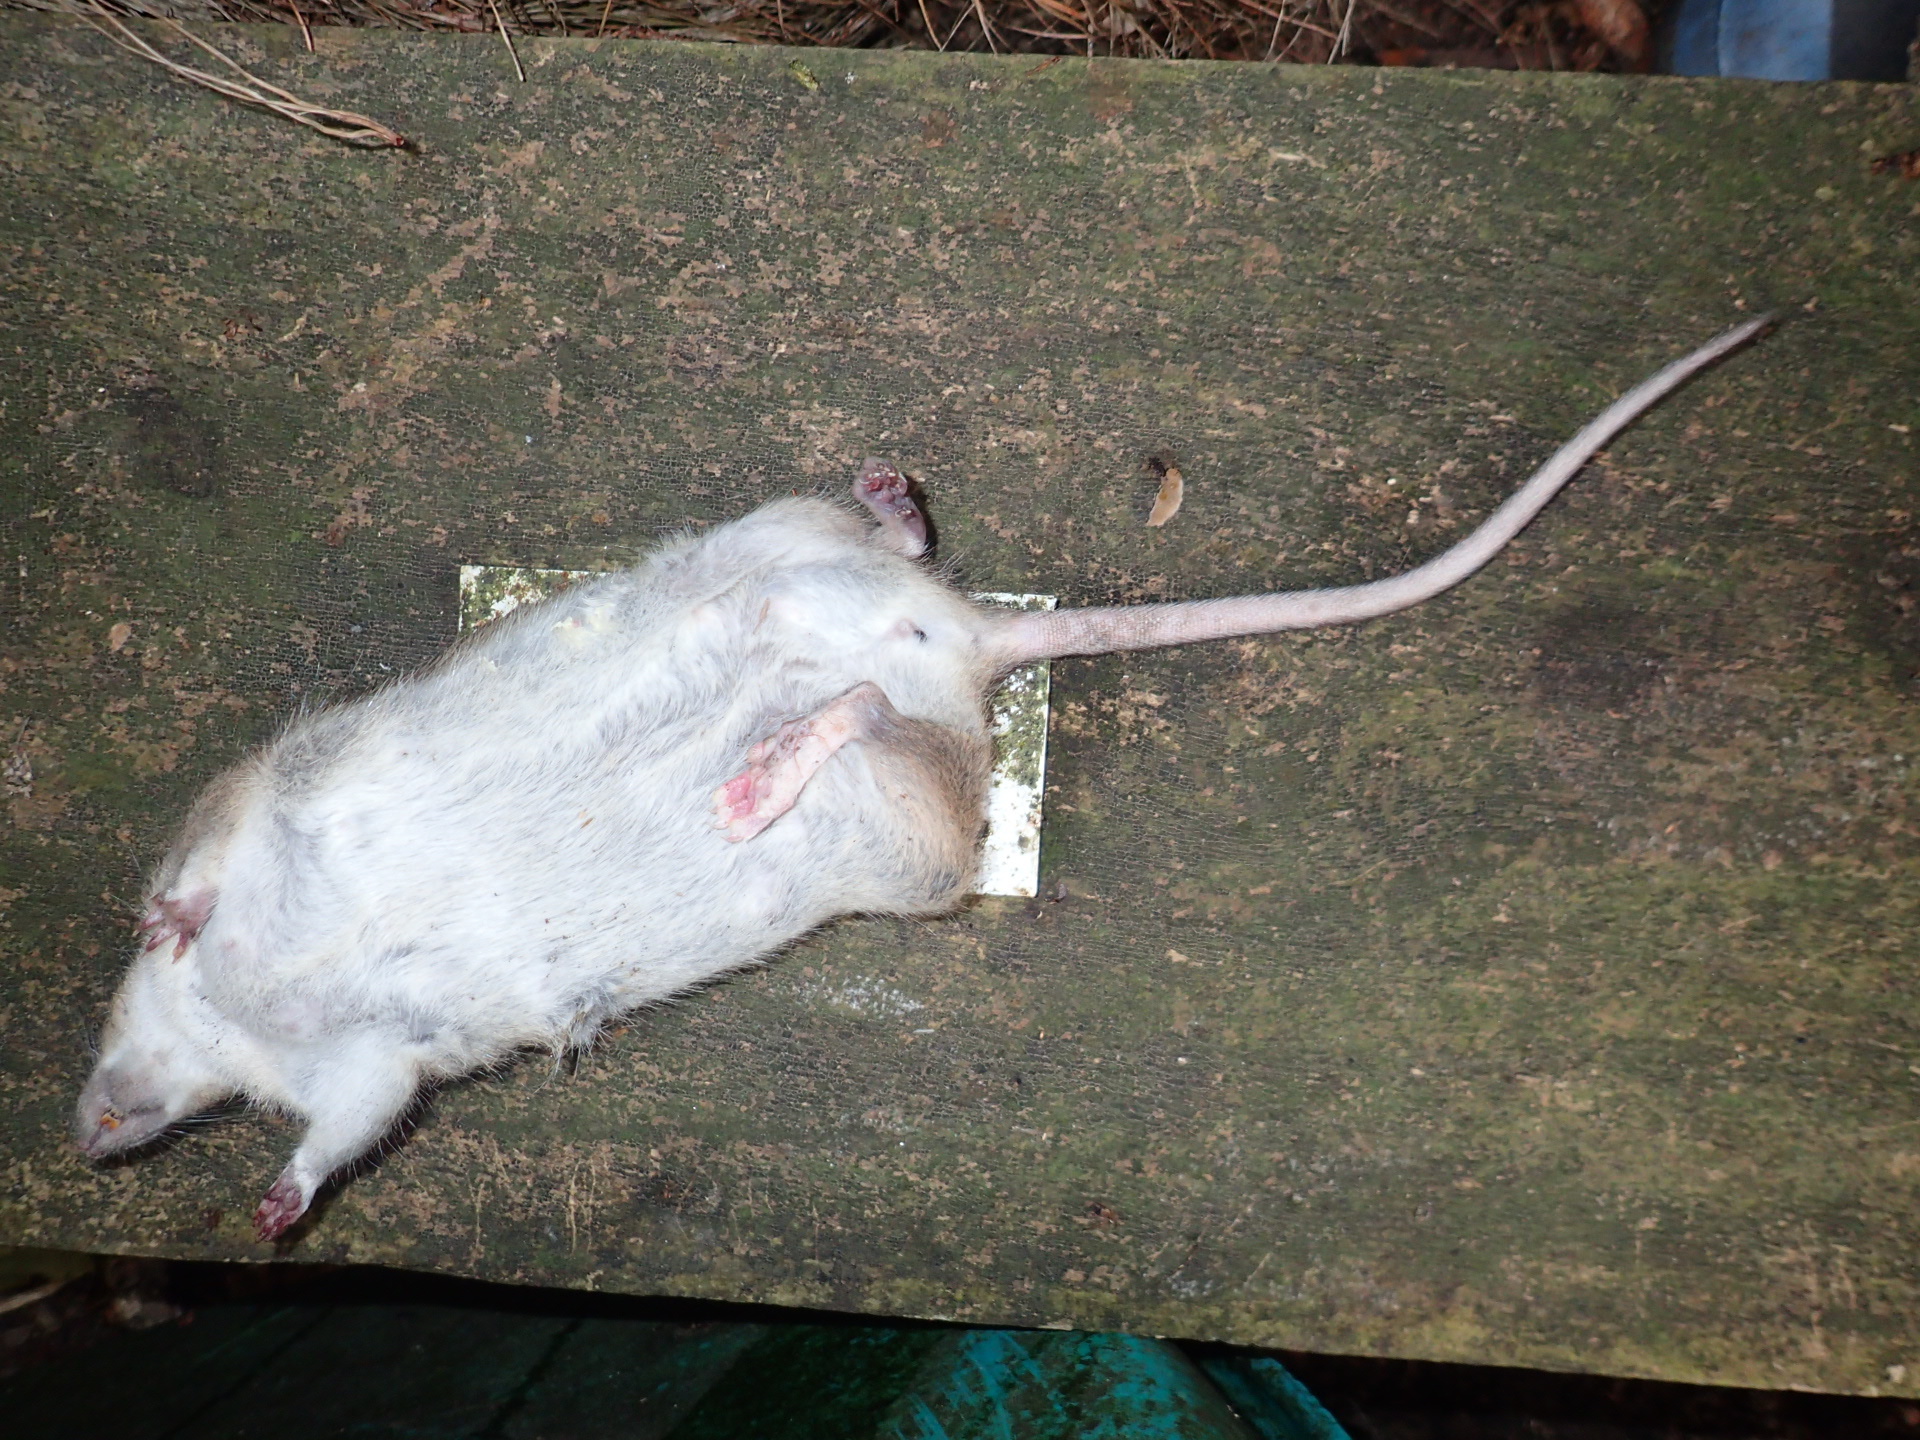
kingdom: Animalia
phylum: Chordata
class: Mammalia
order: Rodentia
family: Muridae
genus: Rattus
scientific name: Rattus norvegicus
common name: Brown rat
